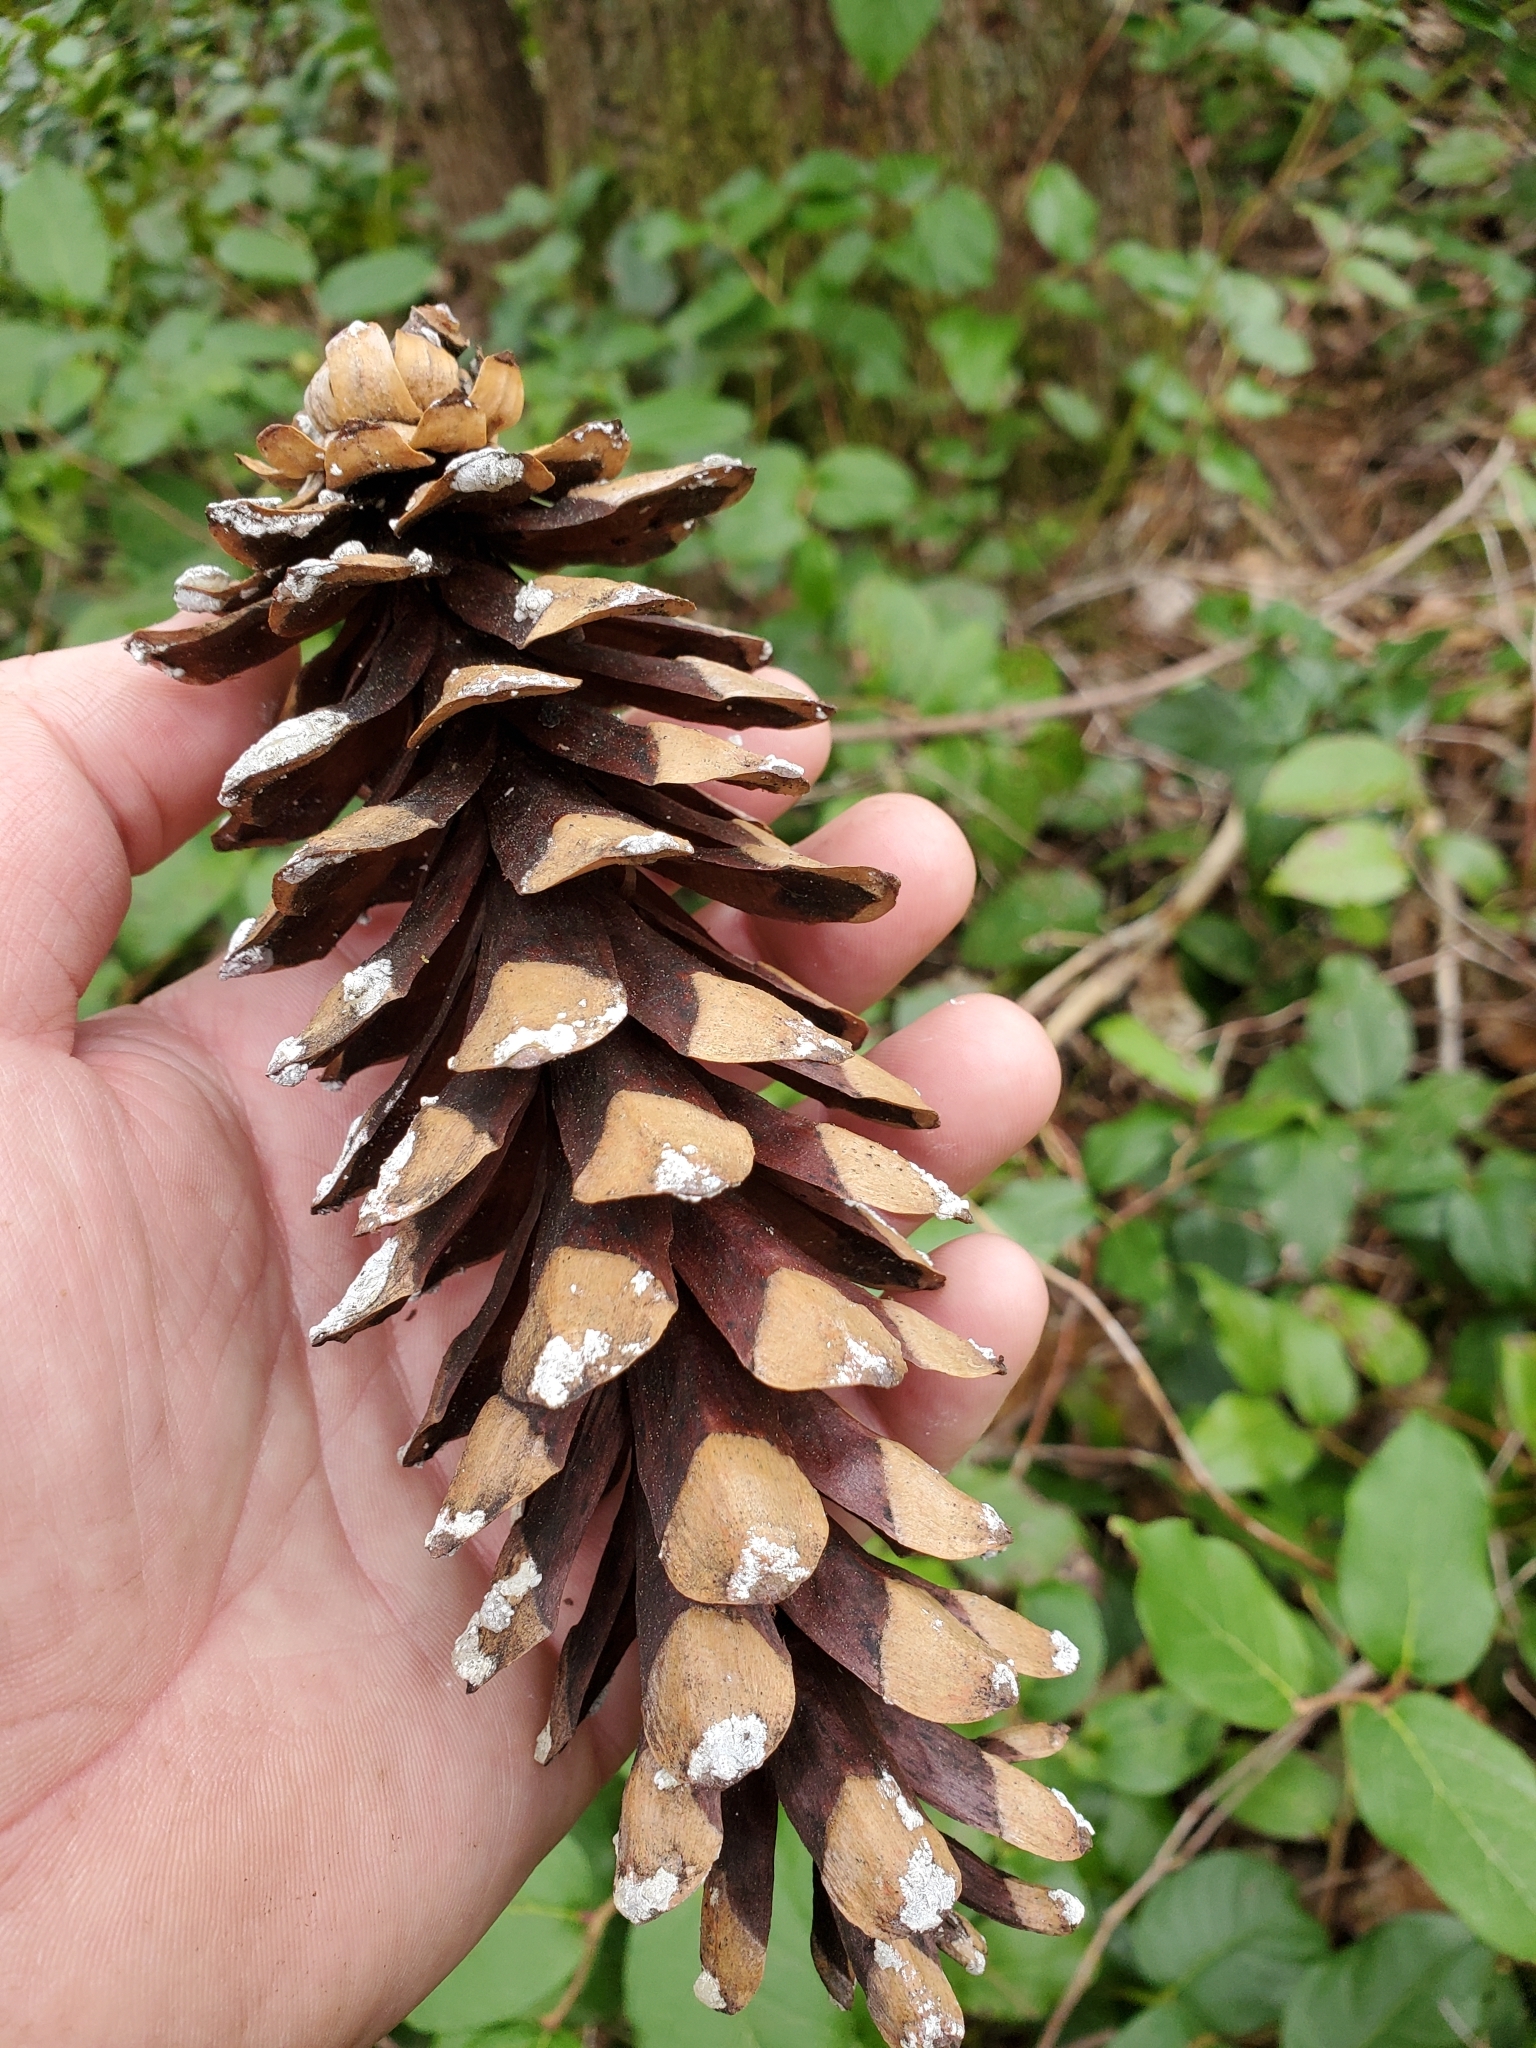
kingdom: Plantae
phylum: Tracheophyta
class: Pinopsida
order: Pinales
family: Pinaceae
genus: Pinus
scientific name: Pinus monticola
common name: Western white pine
